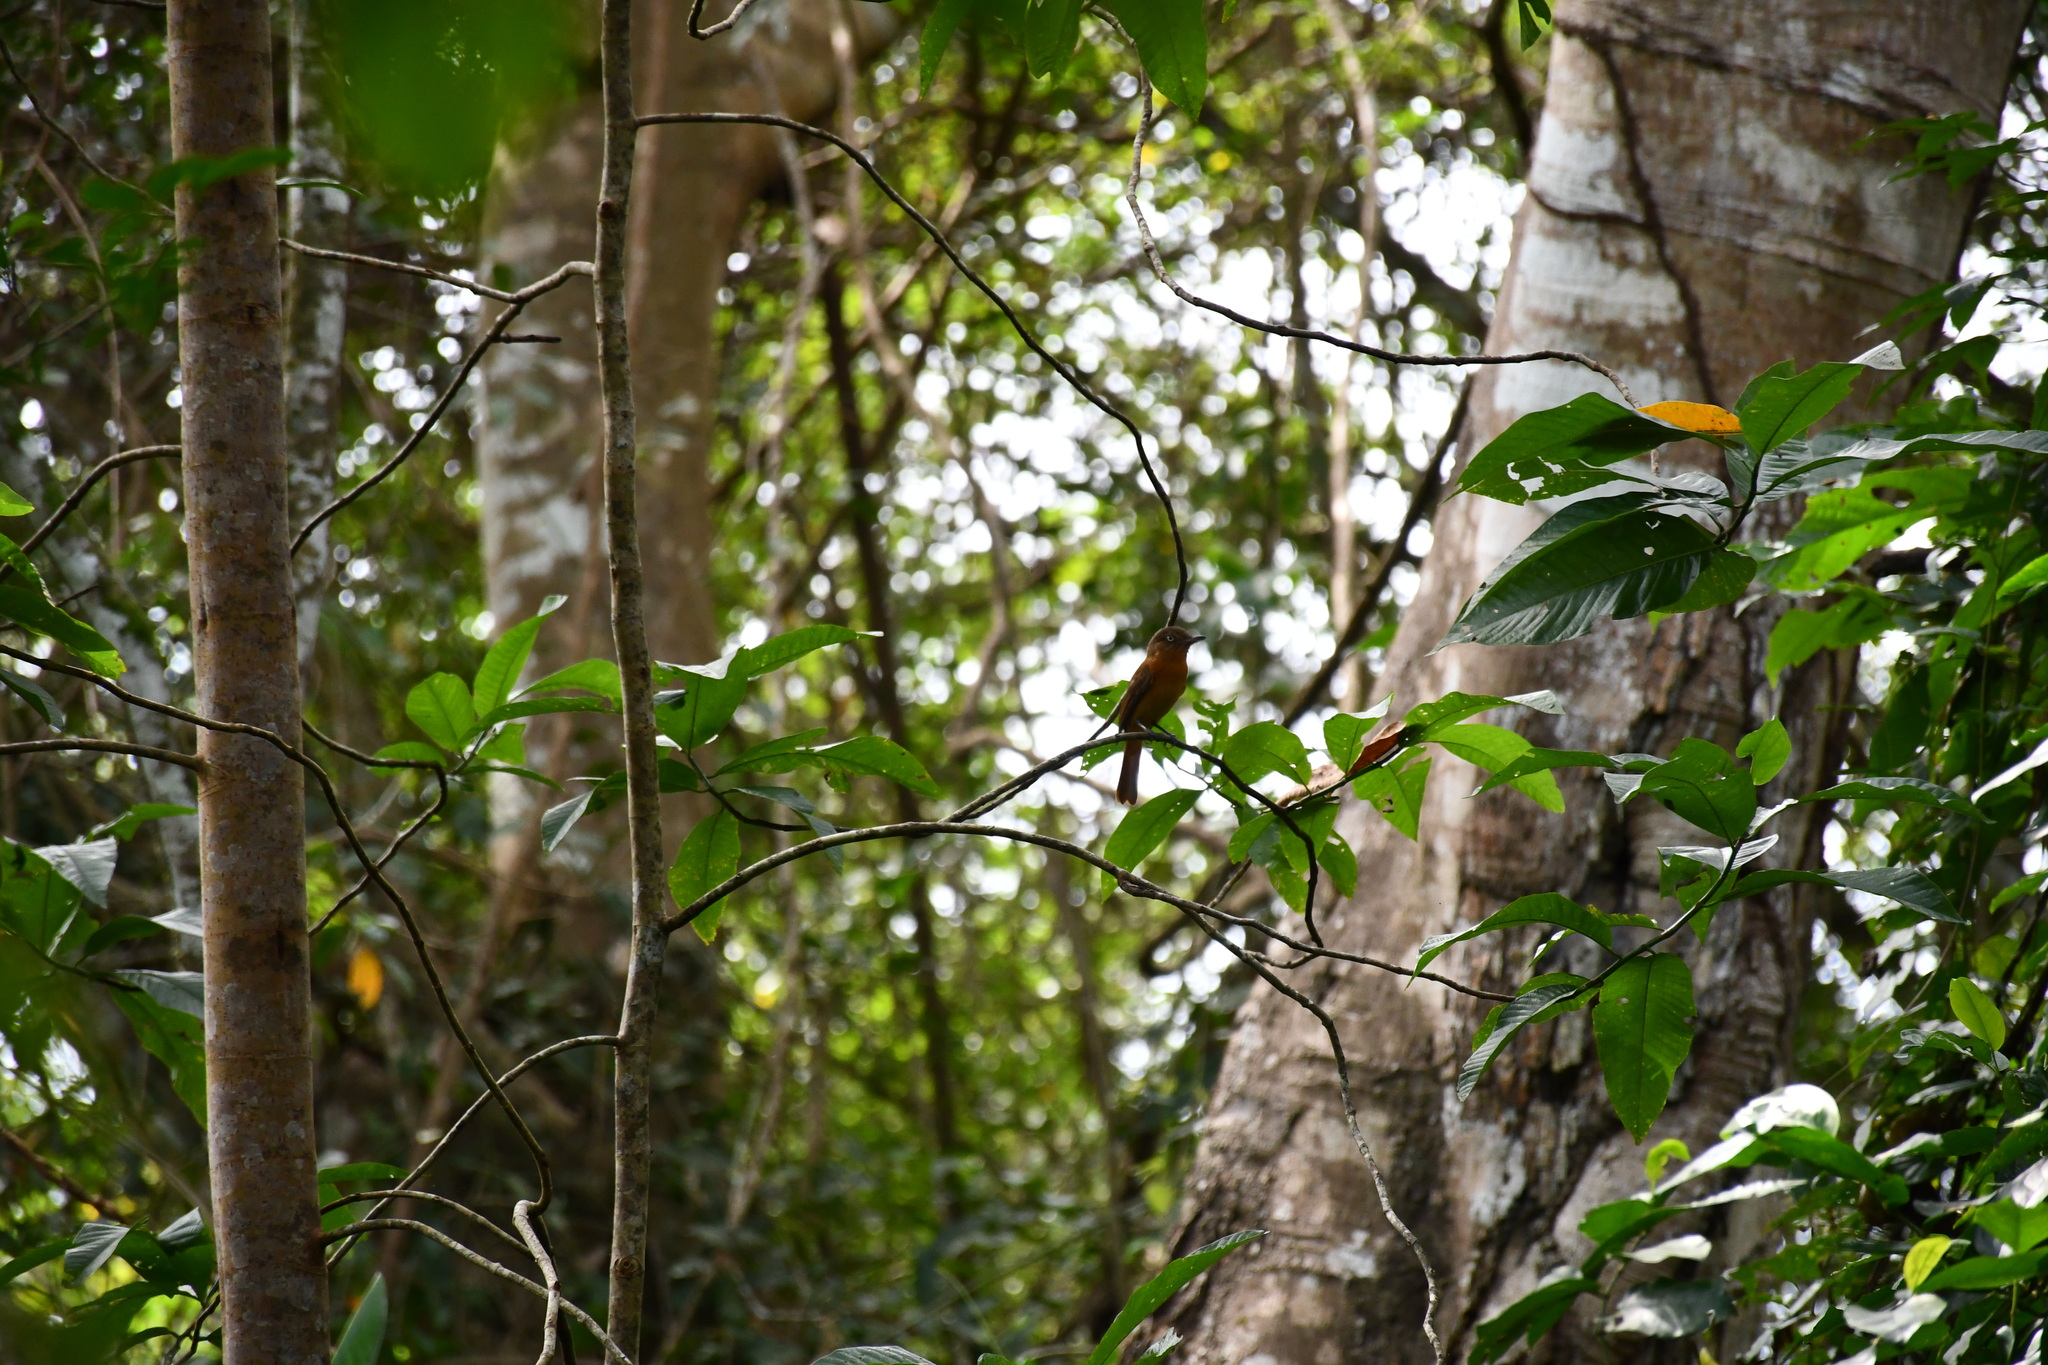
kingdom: Animalia
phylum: Chordata
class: Aves
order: Passeriformes
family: Tyrannidae
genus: Attila
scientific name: Attila bolivianus
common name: White-eyed attila
